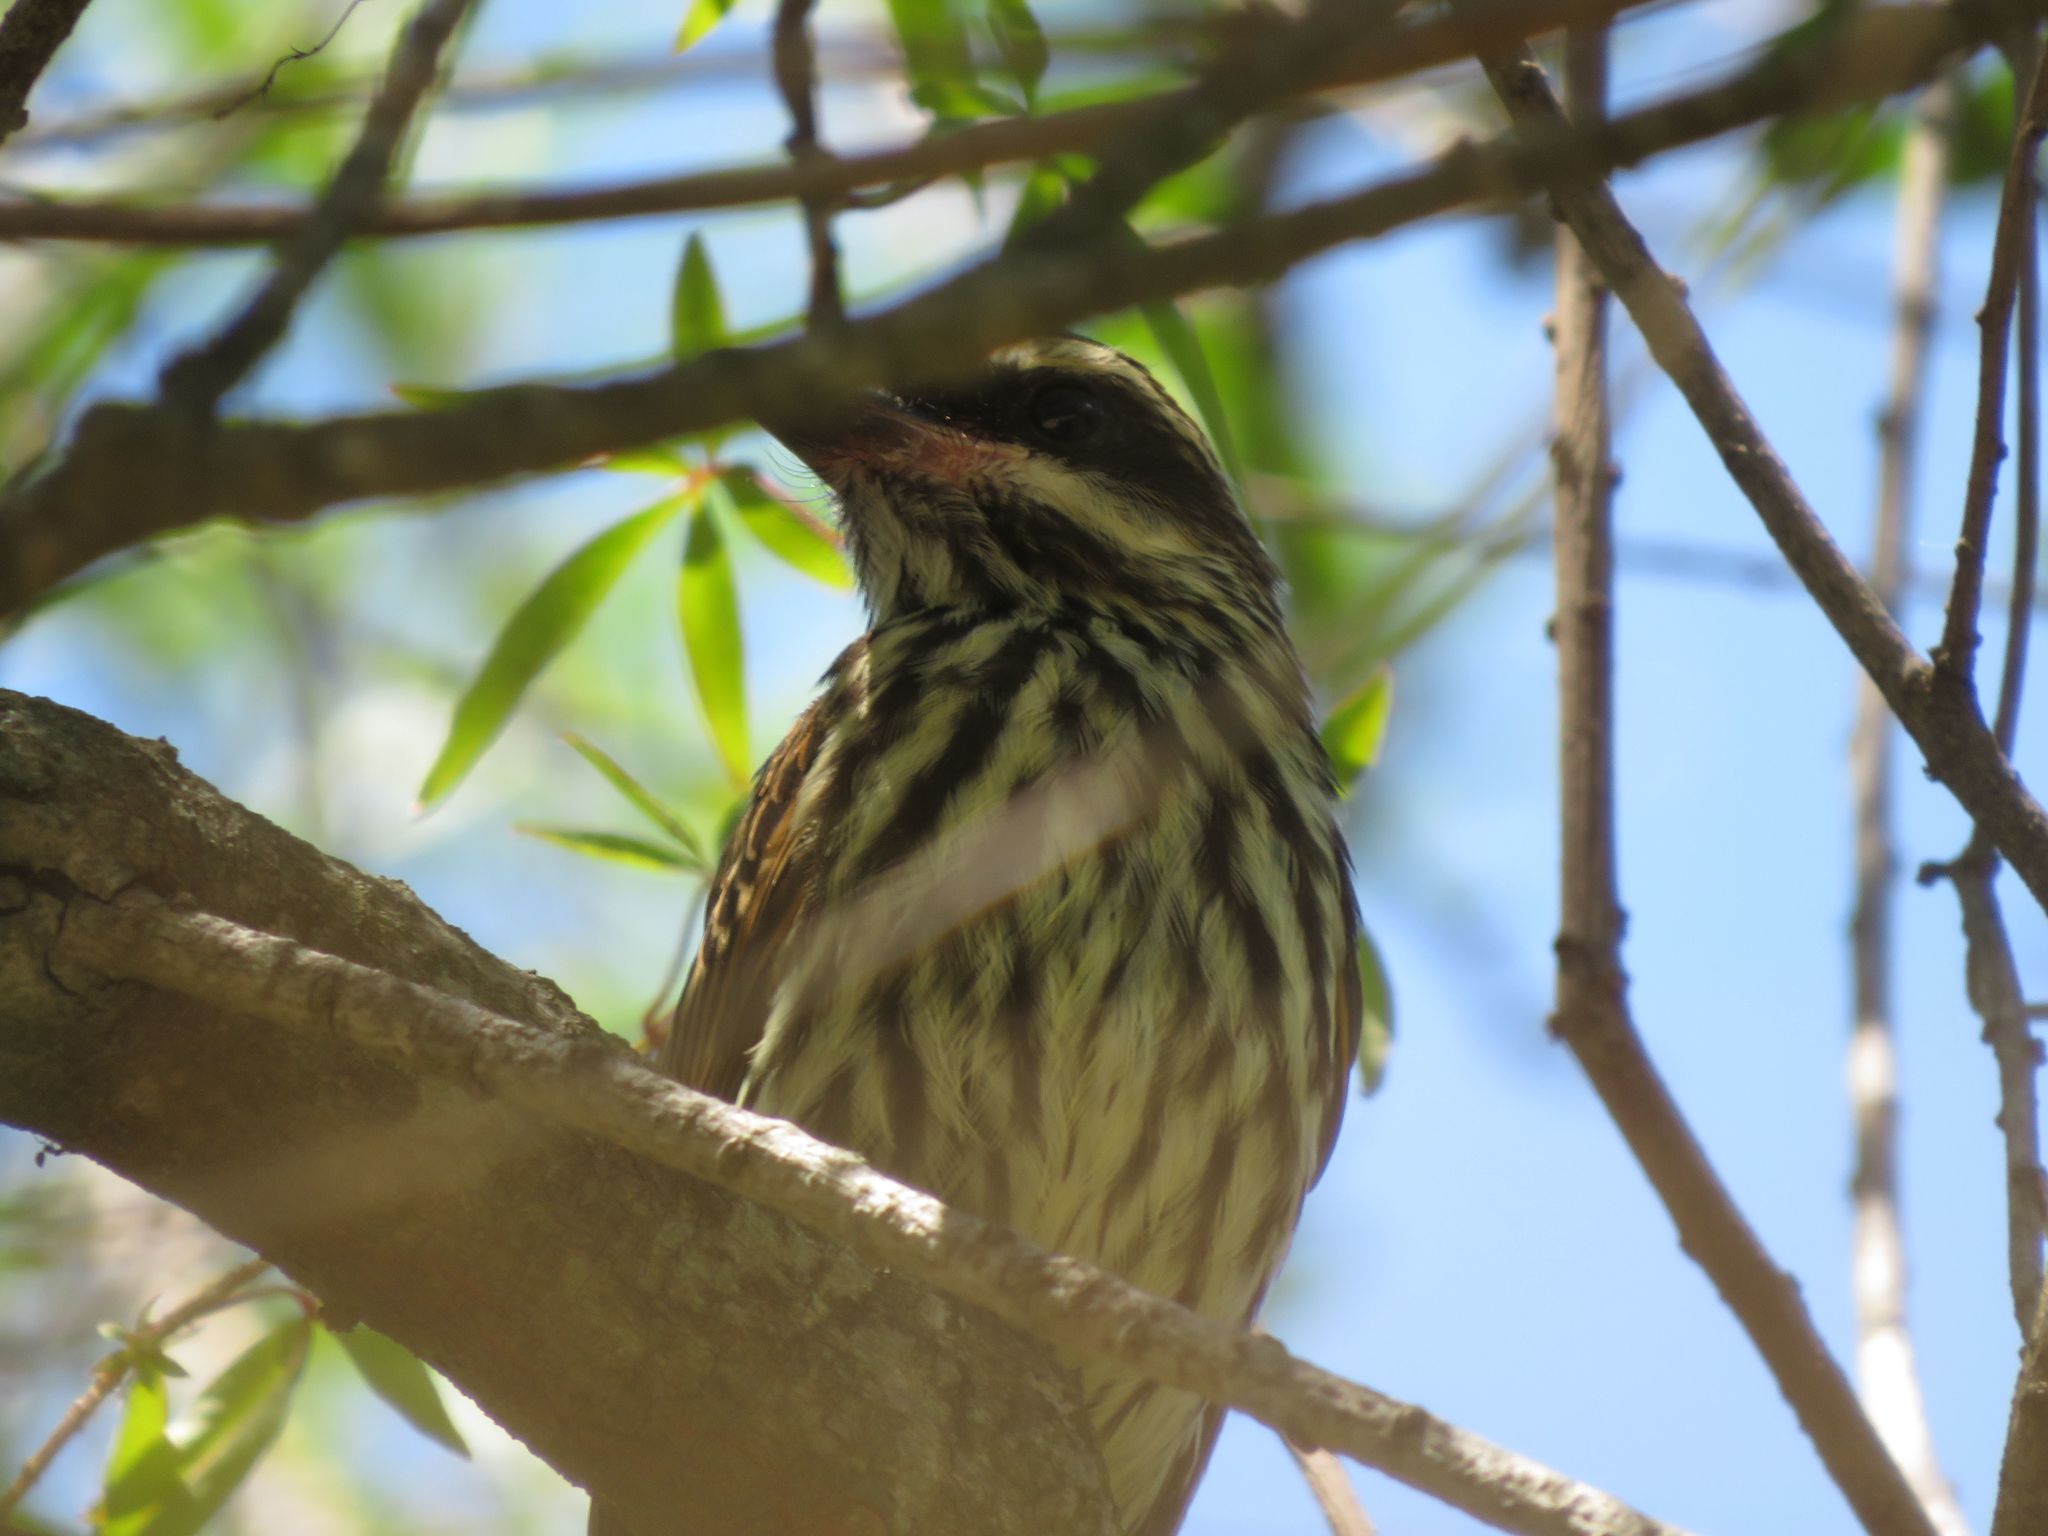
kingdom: Animalia
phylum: Chordata
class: Aves
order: Passeriformes
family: Tyrannidae
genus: Myiodynastes
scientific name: Myiodynastes maculatus
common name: Streaked flycatcher
